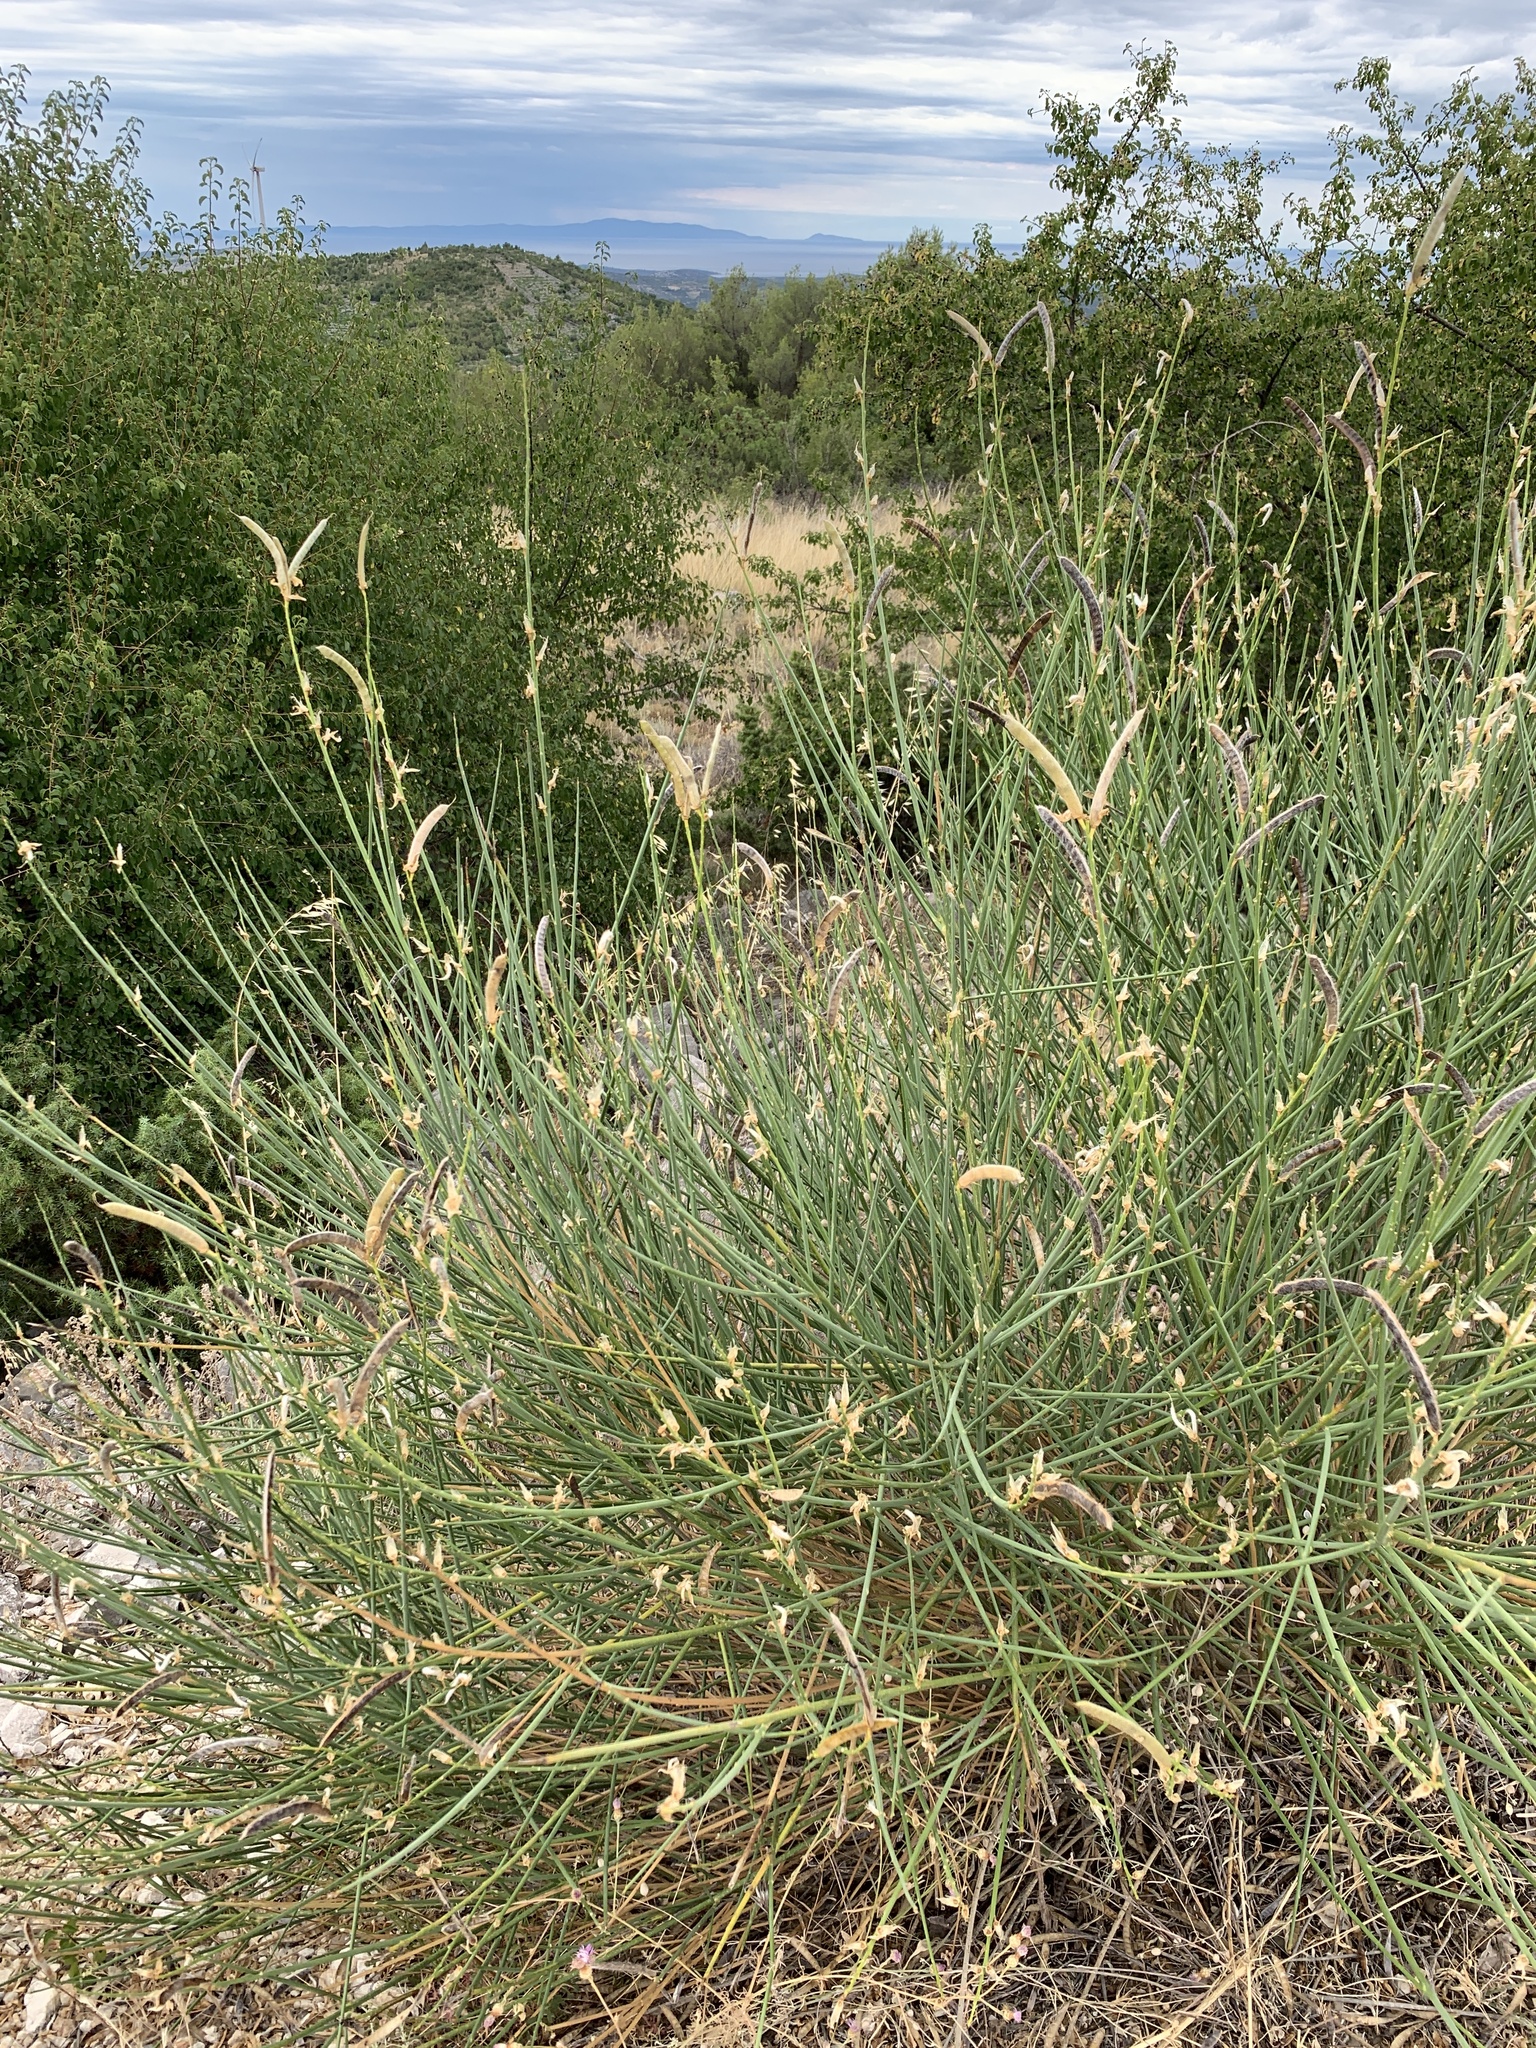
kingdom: Plantae
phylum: Tracheophyta
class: Magnoliopsida
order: Fabales
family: Fabaceae
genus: Spartium
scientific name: Spartium junceum
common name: Spanish broom
